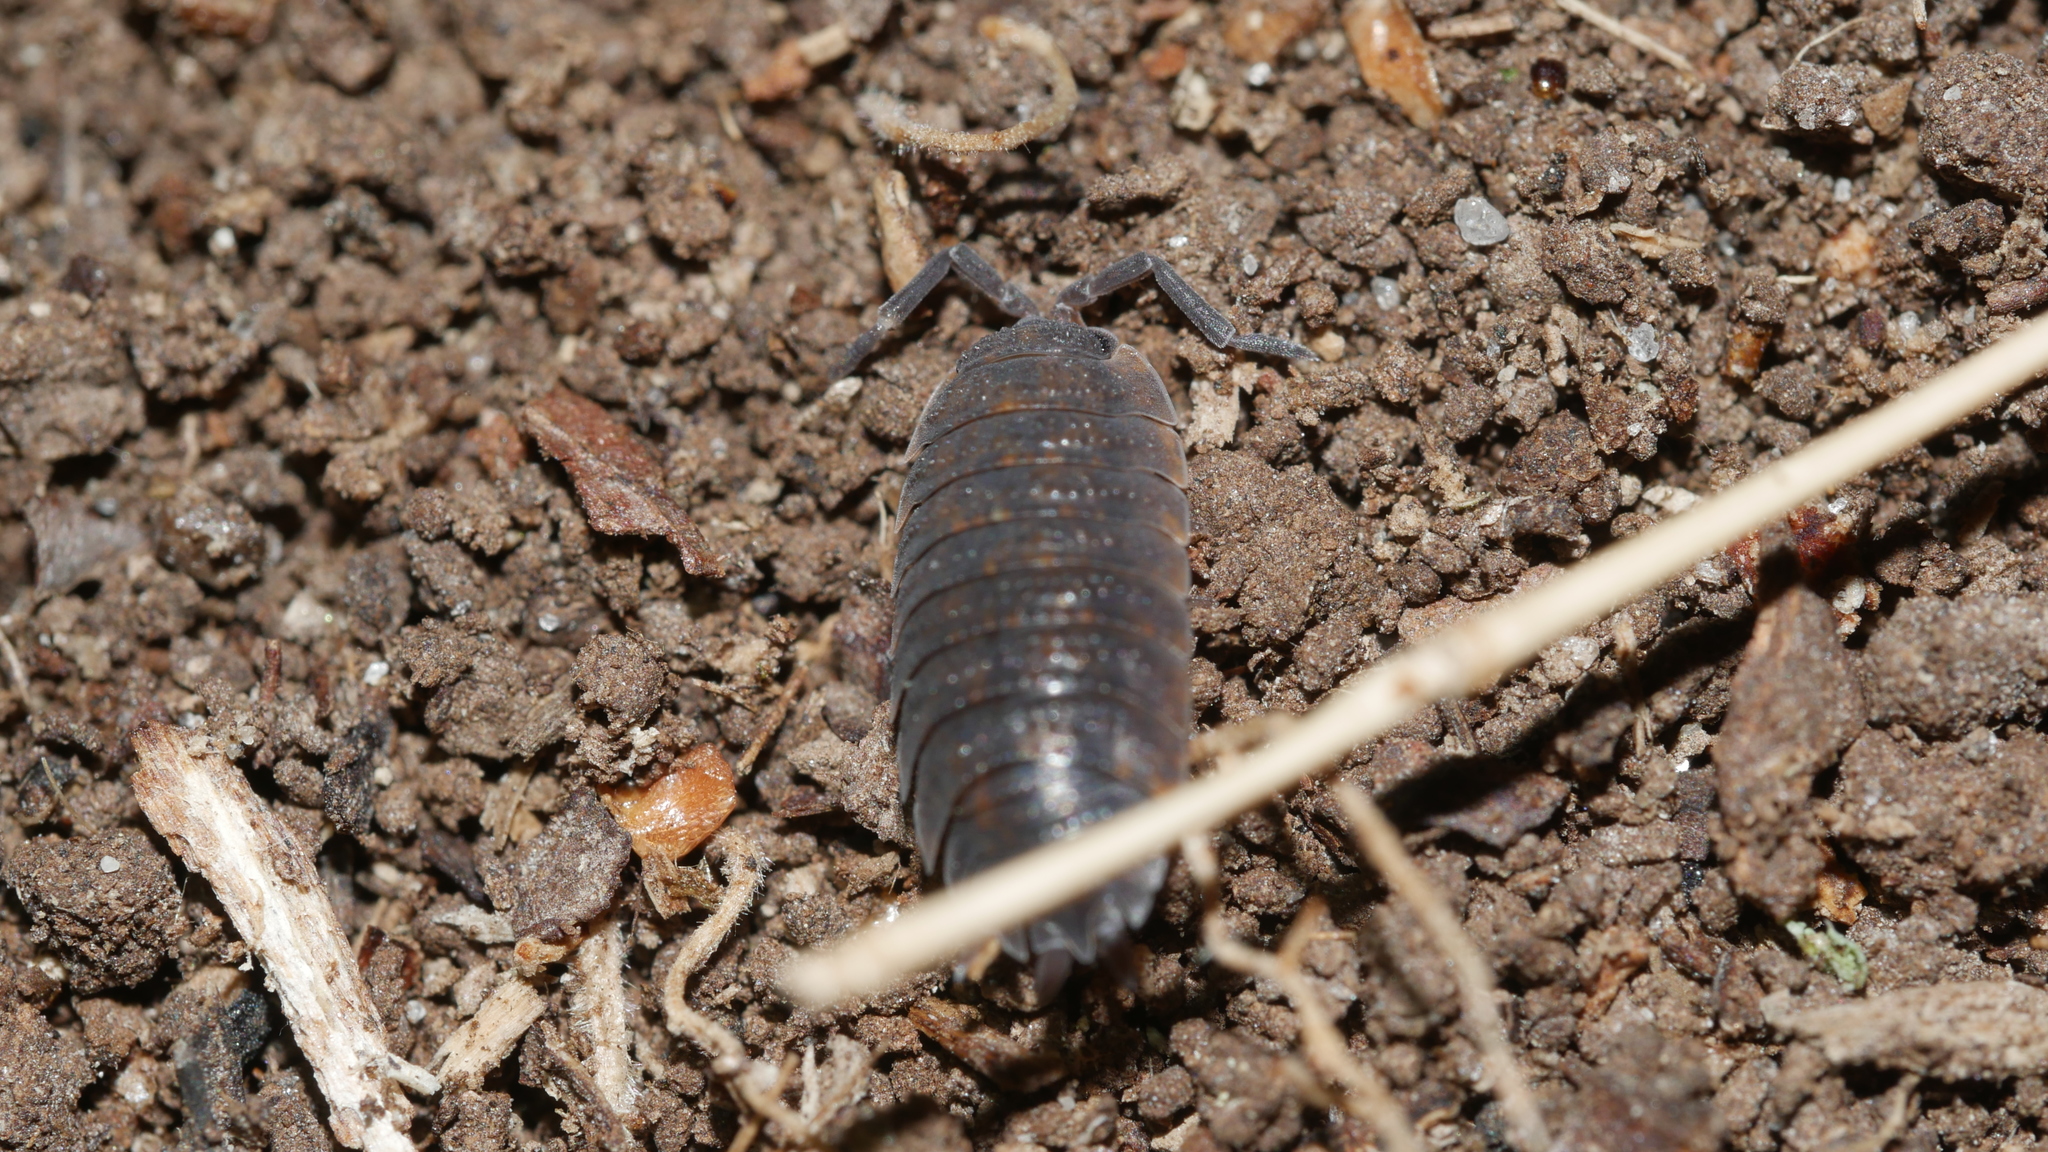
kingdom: Animalia
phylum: Arthropoda
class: Malacostraca
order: Isopoda
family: Porcellionidae
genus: Porcellio
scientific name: Porcellio scaber
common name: Common rough woodlouse
